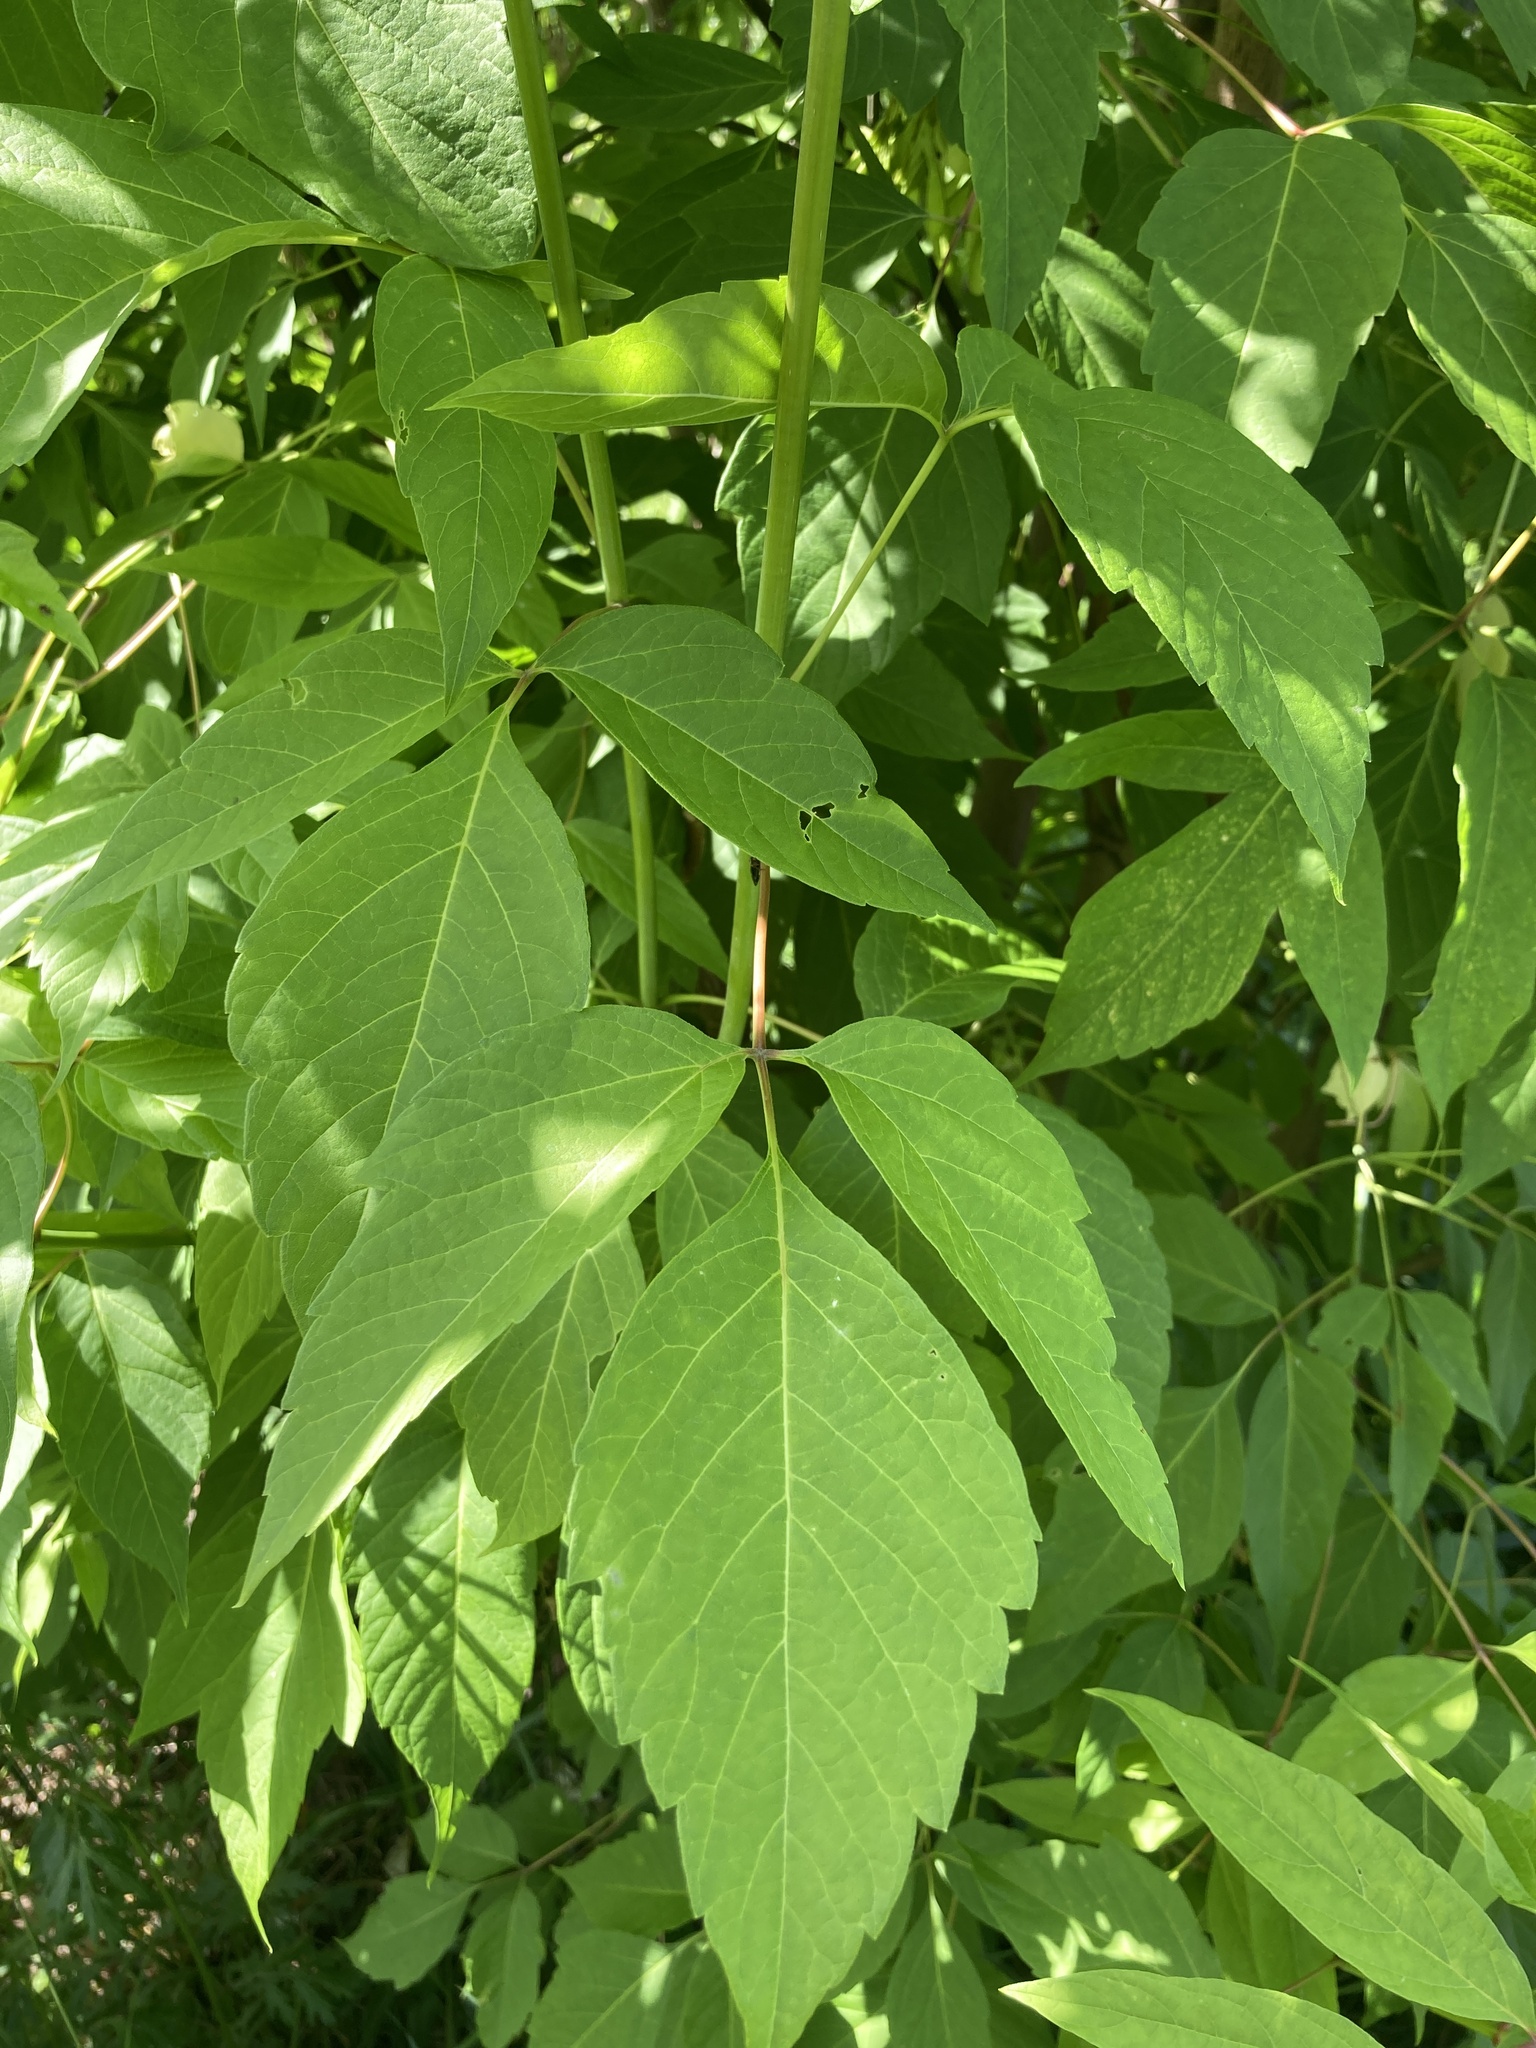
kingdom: Plantae
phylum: Tracheophyta
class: Magnoliopsida
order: Sapindales
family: Sapindaceae
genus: Acer
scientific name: Acer negundo
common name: Ashleaf maple
